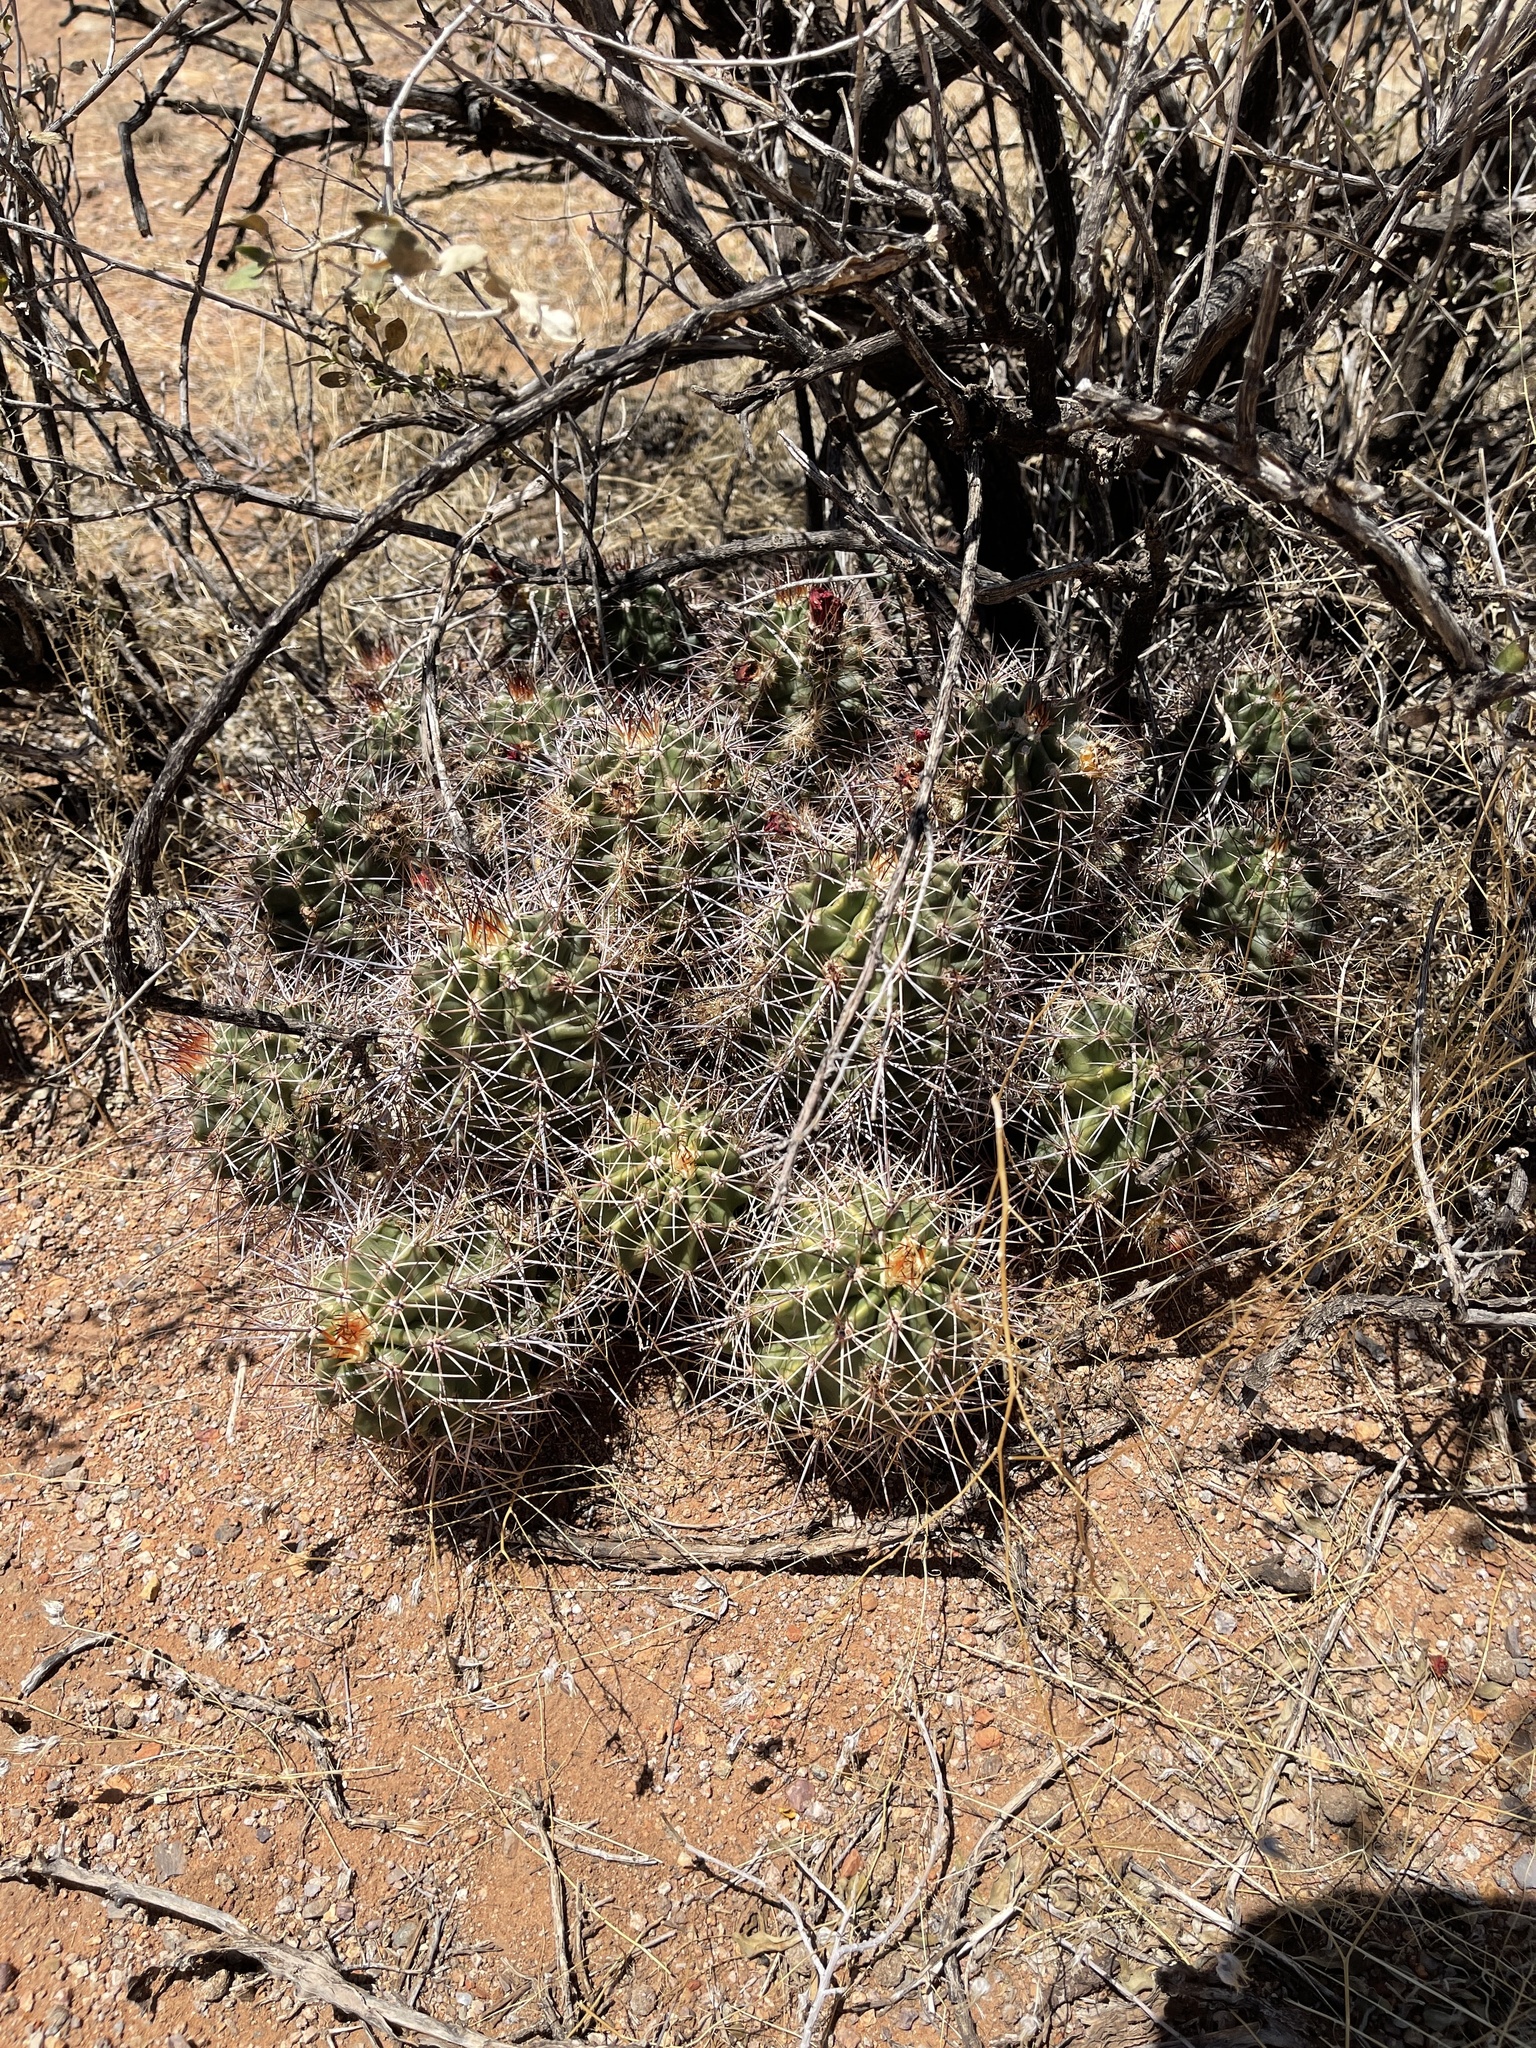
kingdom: Plantae
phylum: Tracheophyta
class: Magnoliopsida
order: Caryophyllales
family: Cactaceae
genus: Echinocereus
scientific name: Echinocereus coccineus
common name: Scarlet hedgehog cactus
